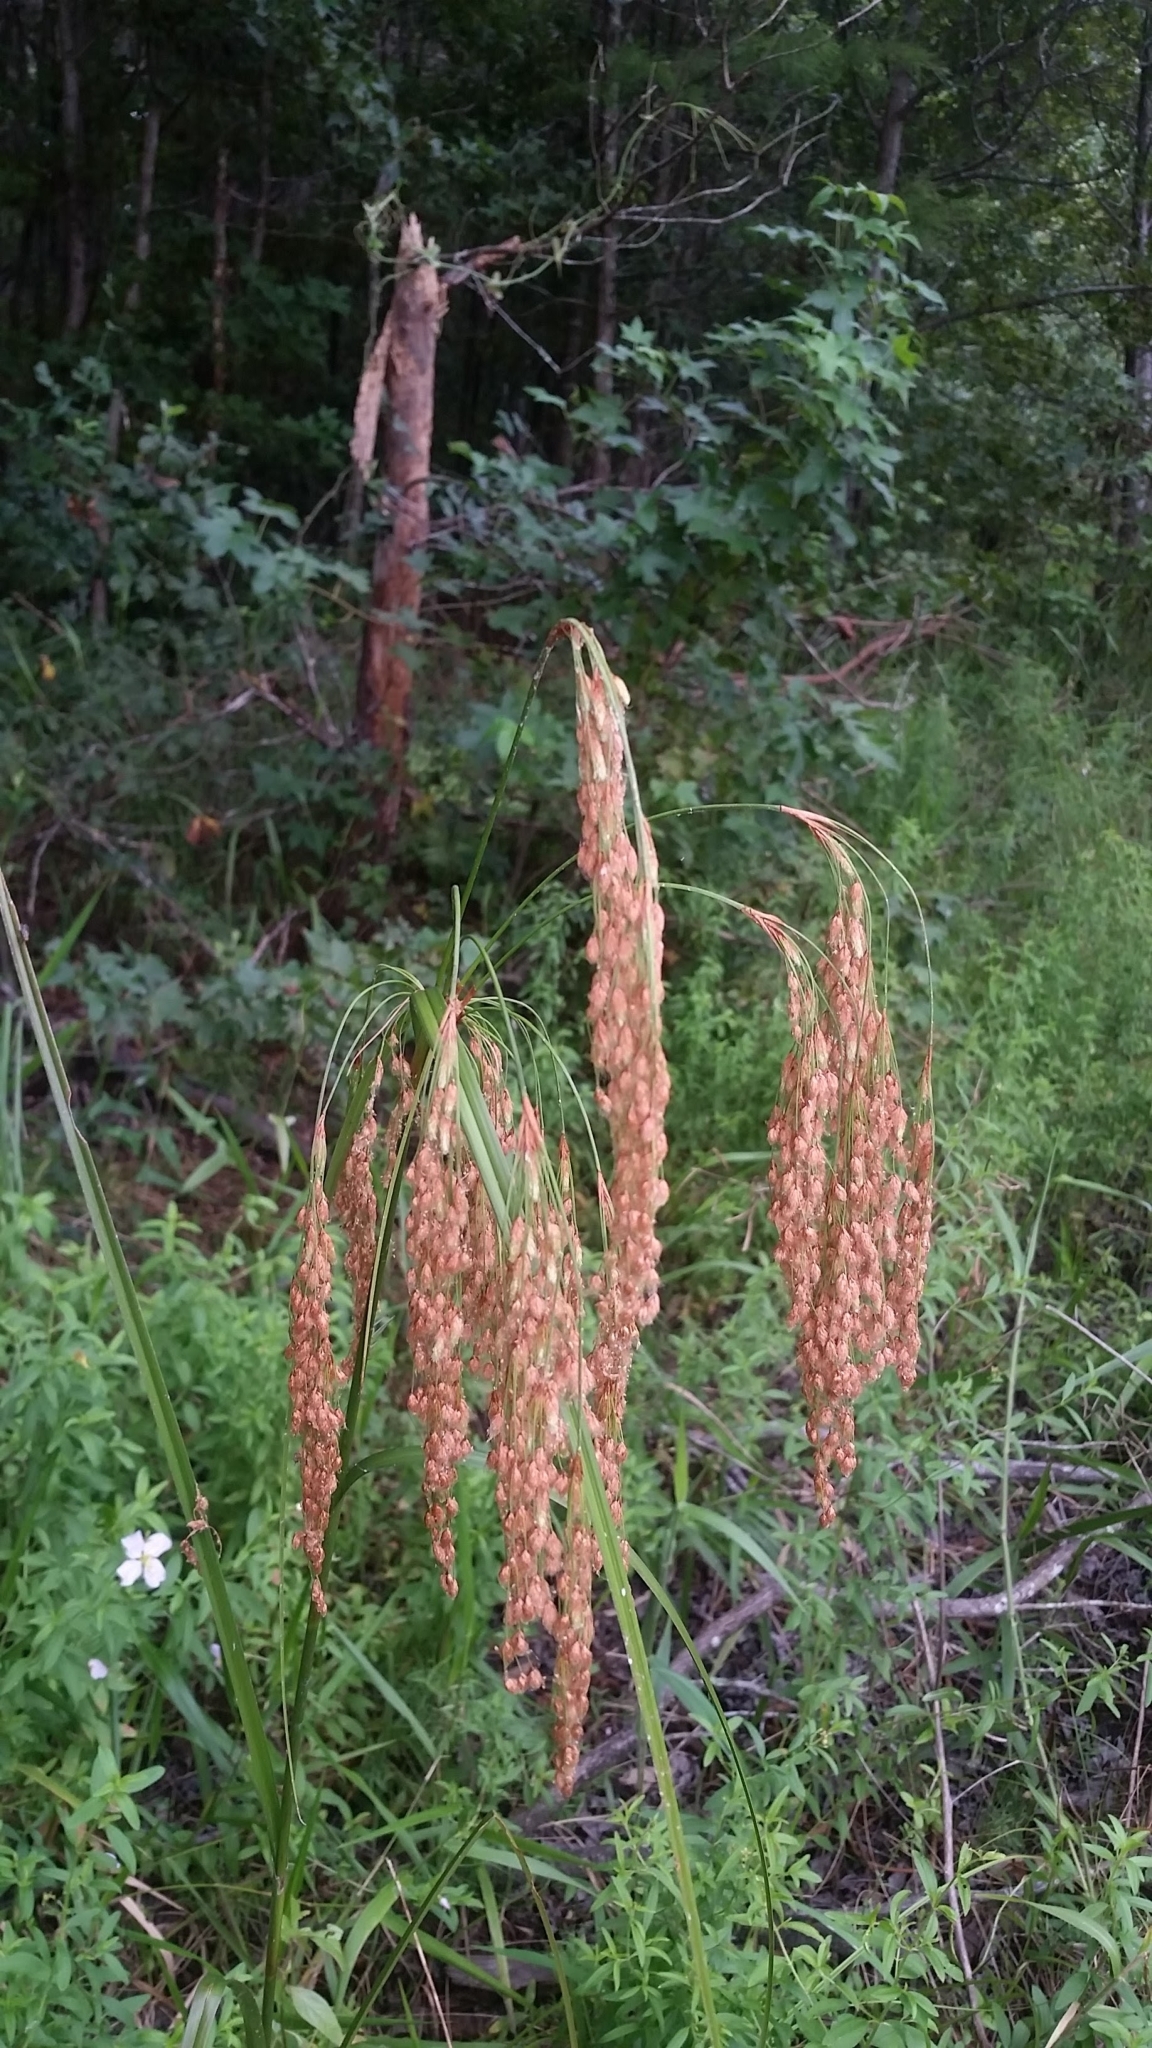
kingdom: Plantae
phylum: Tracheophyta
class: Liliopsida
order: Poales
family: Cyperaceae
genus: Scirpus
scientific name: Scirpus cyperinus
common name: Black-sheathed bulrush
